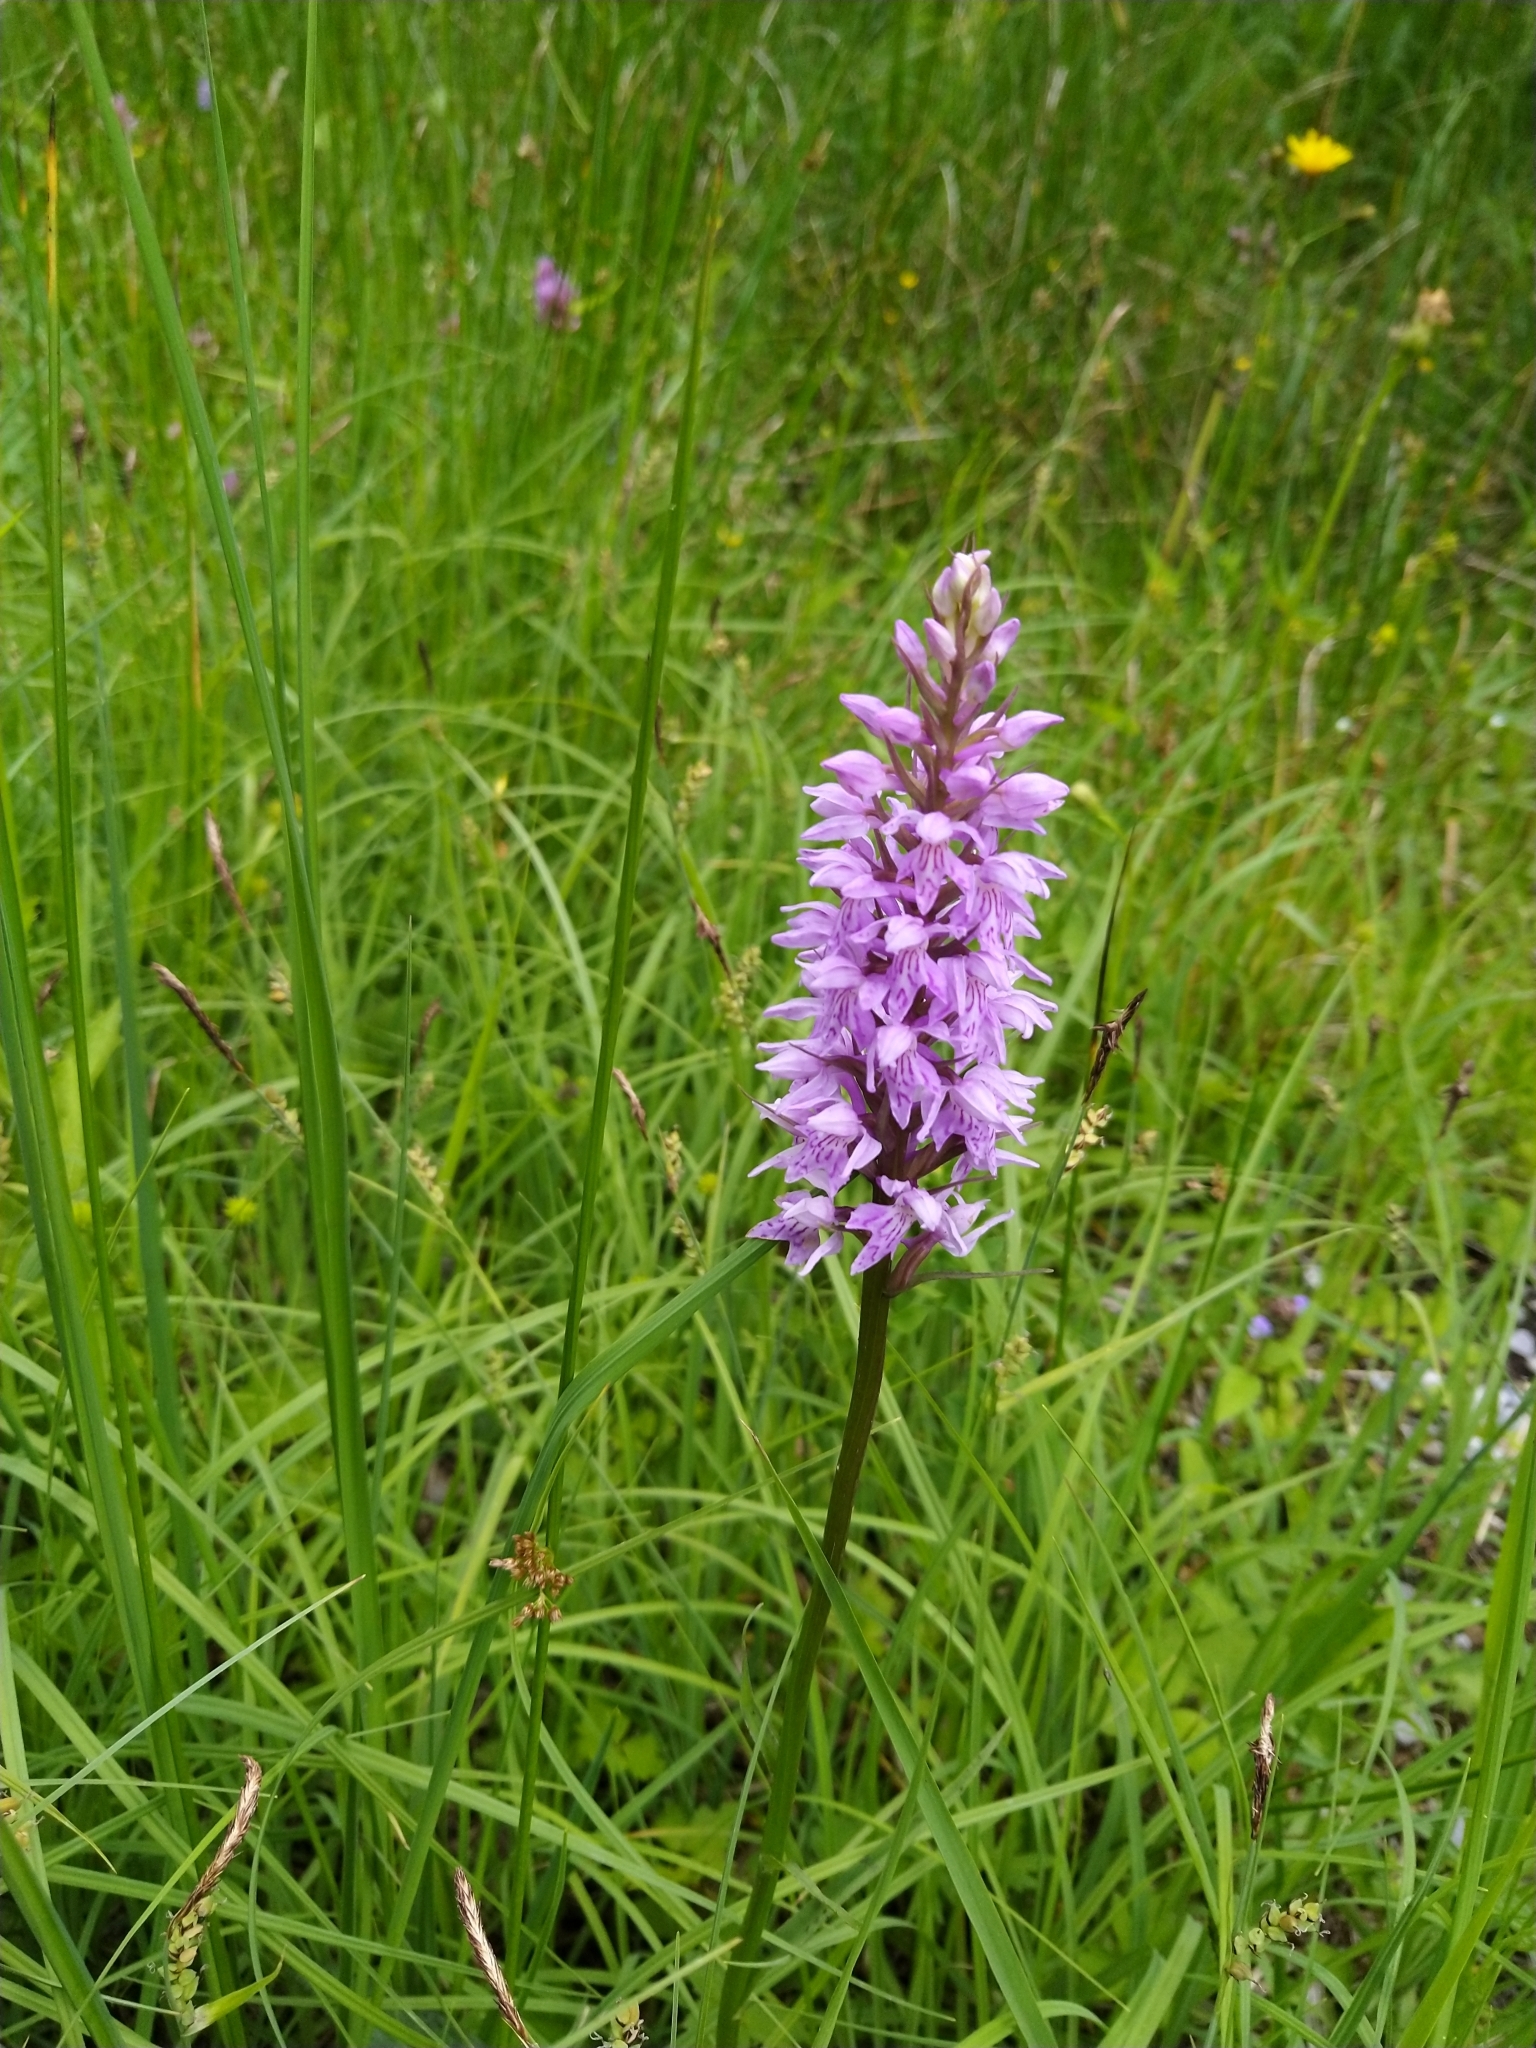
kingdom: Plantae
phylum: Tracheophyta
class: Liliopsida
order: Asparagales
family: Orchidaceae
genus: Dactylorhiza
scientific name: Dactylorhiza maculata
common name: Heath spotted-orchid
